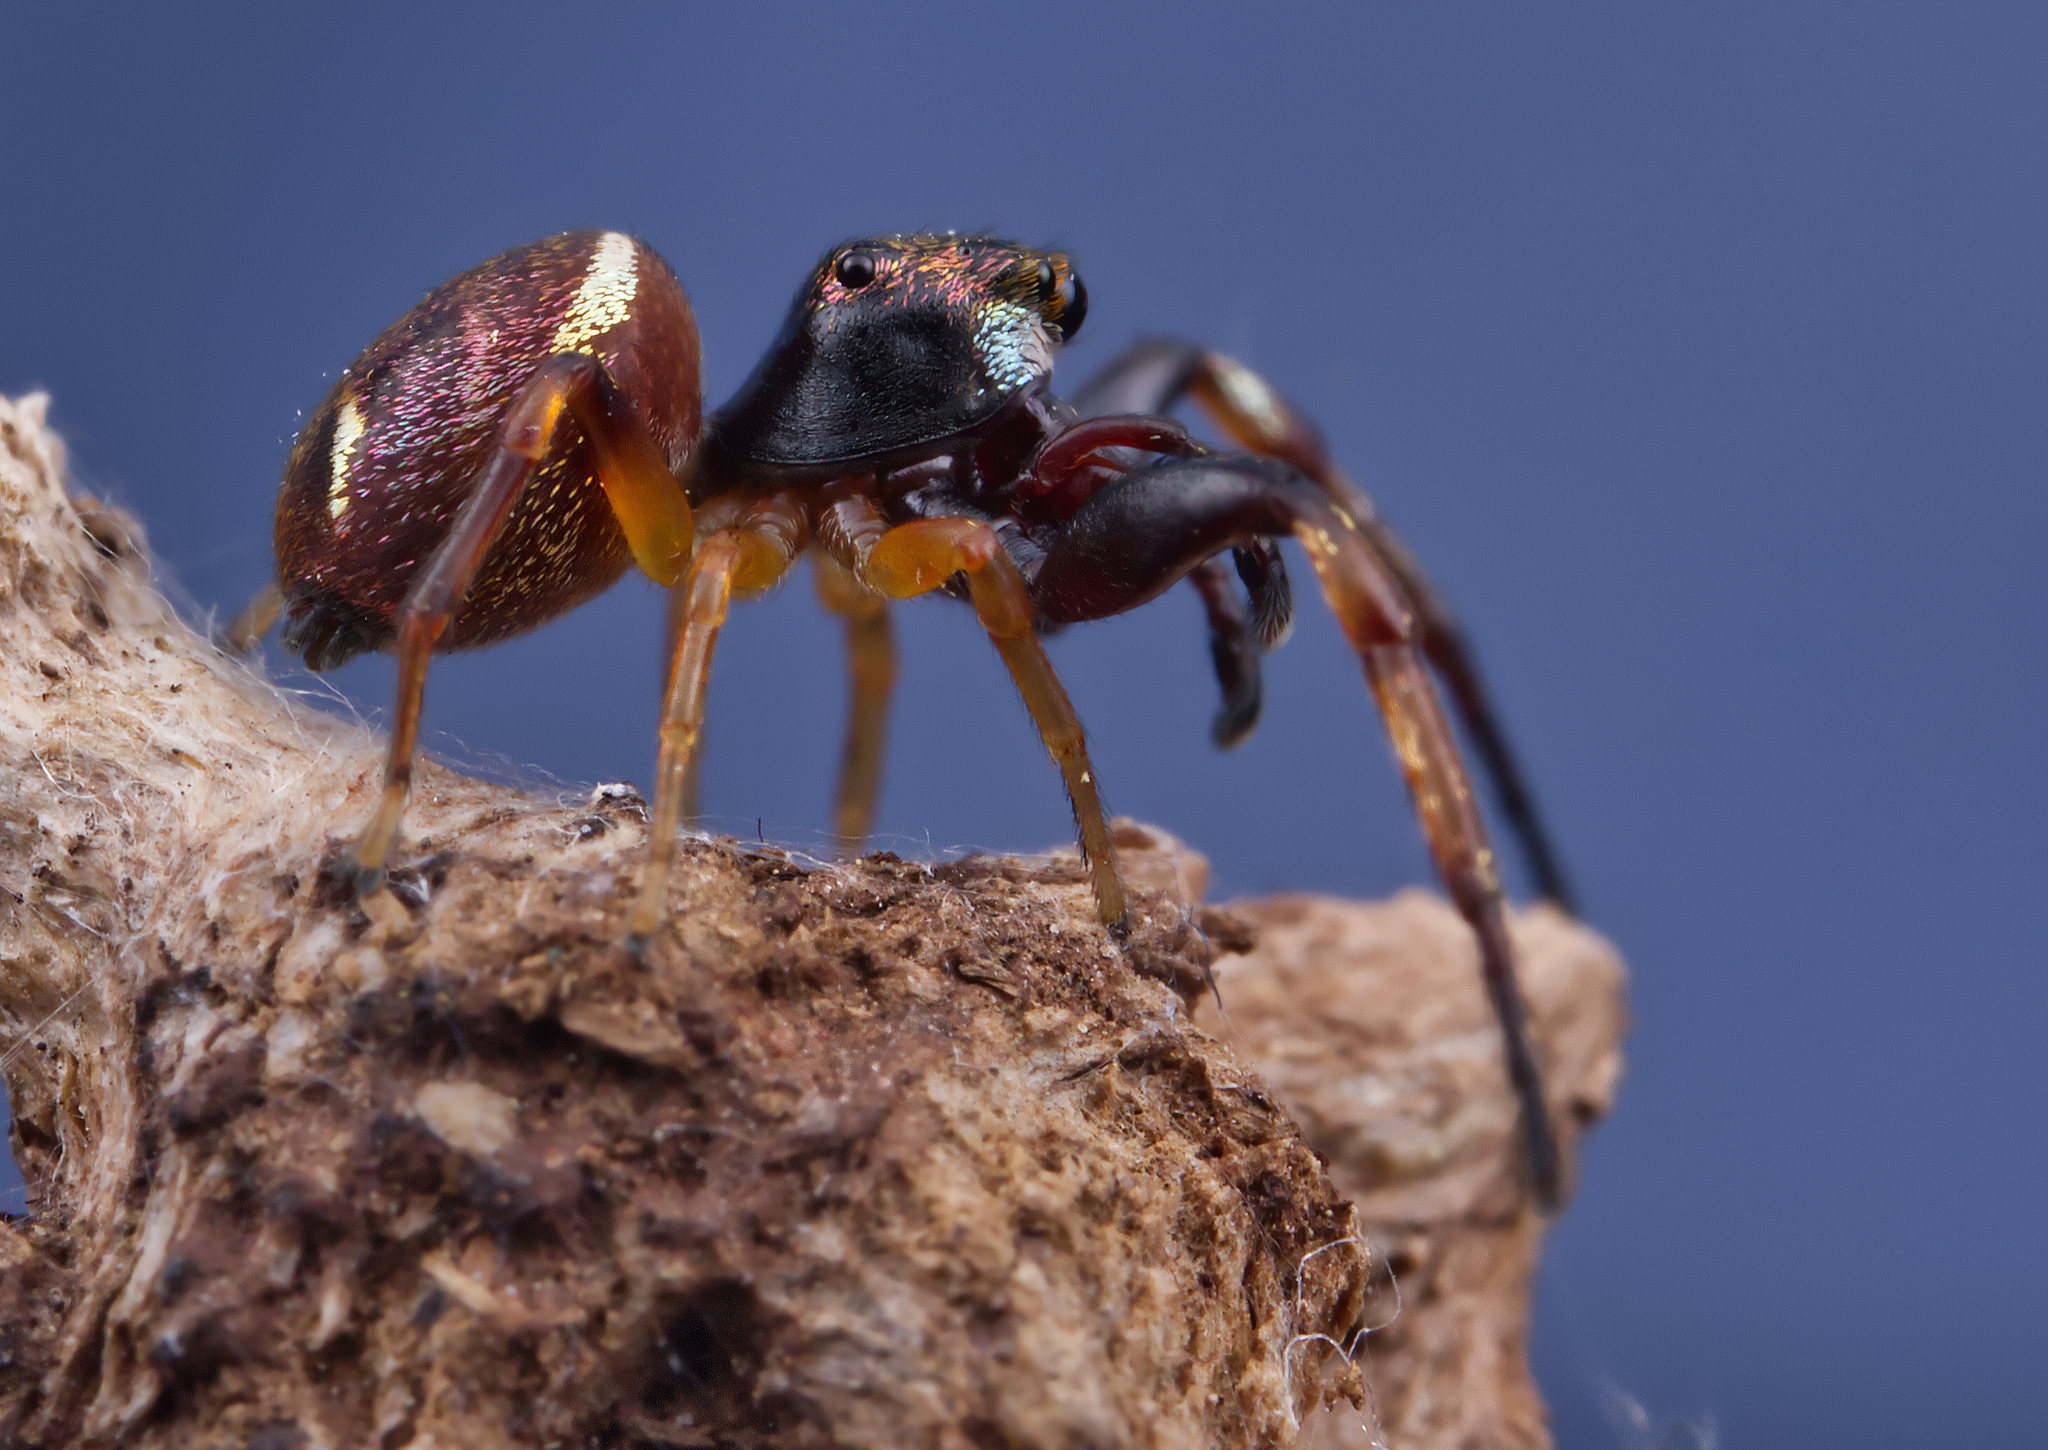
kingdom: Animalia
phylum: Arthropoda
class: Arachnida
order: Araneae
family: Salticidae
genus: Zygoballus
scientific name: Zygoballus rufipes
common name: Jumping spiders
